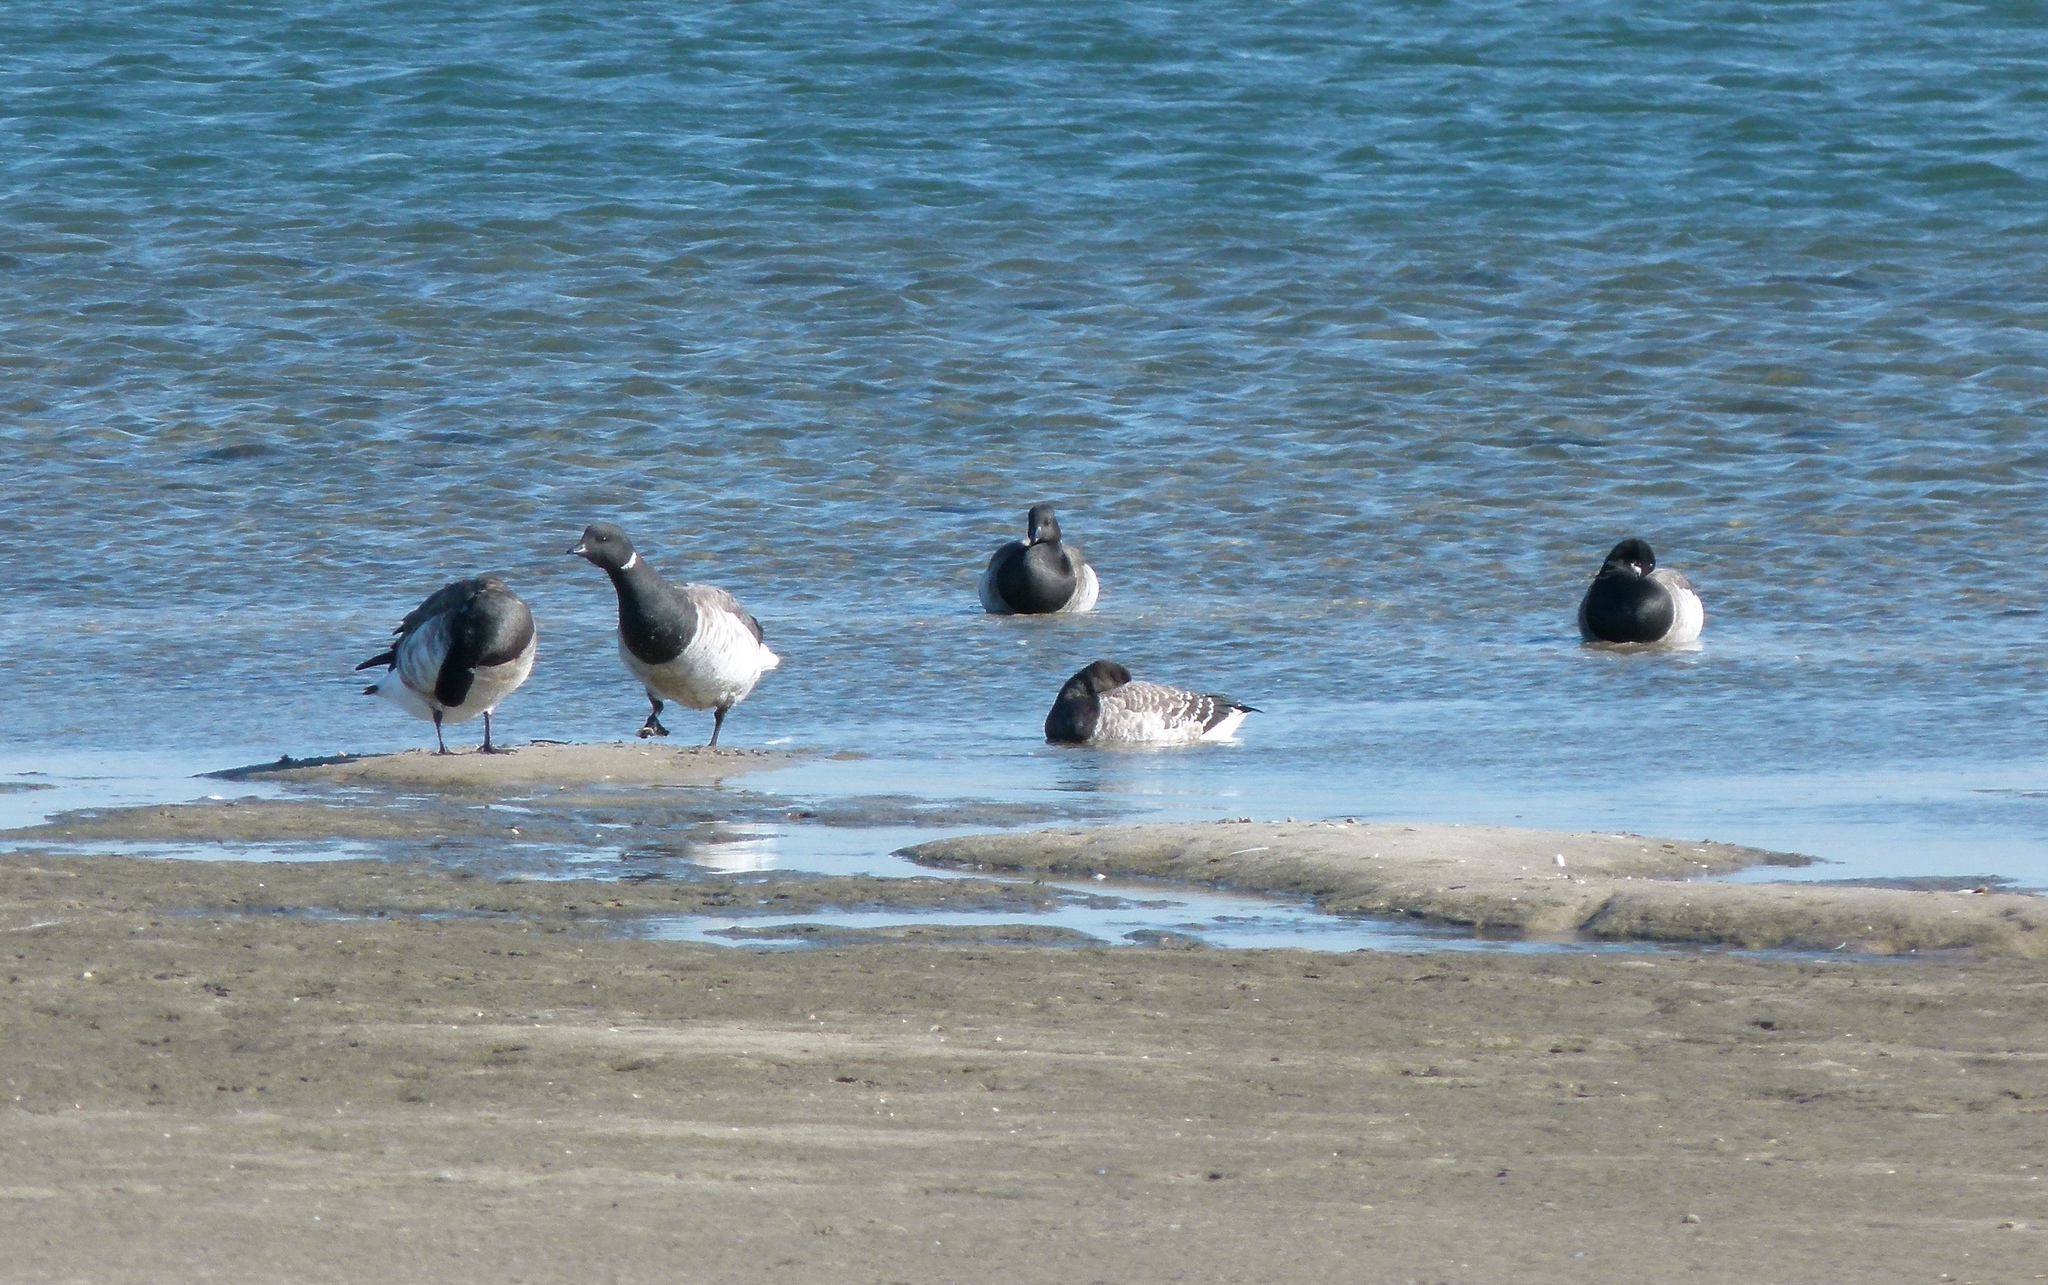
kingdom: Animalia
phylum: Chordata
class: Aves
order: Anseriformes
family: Anatidae
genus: Branta
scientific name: Branta bernicla
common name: Brant goose
